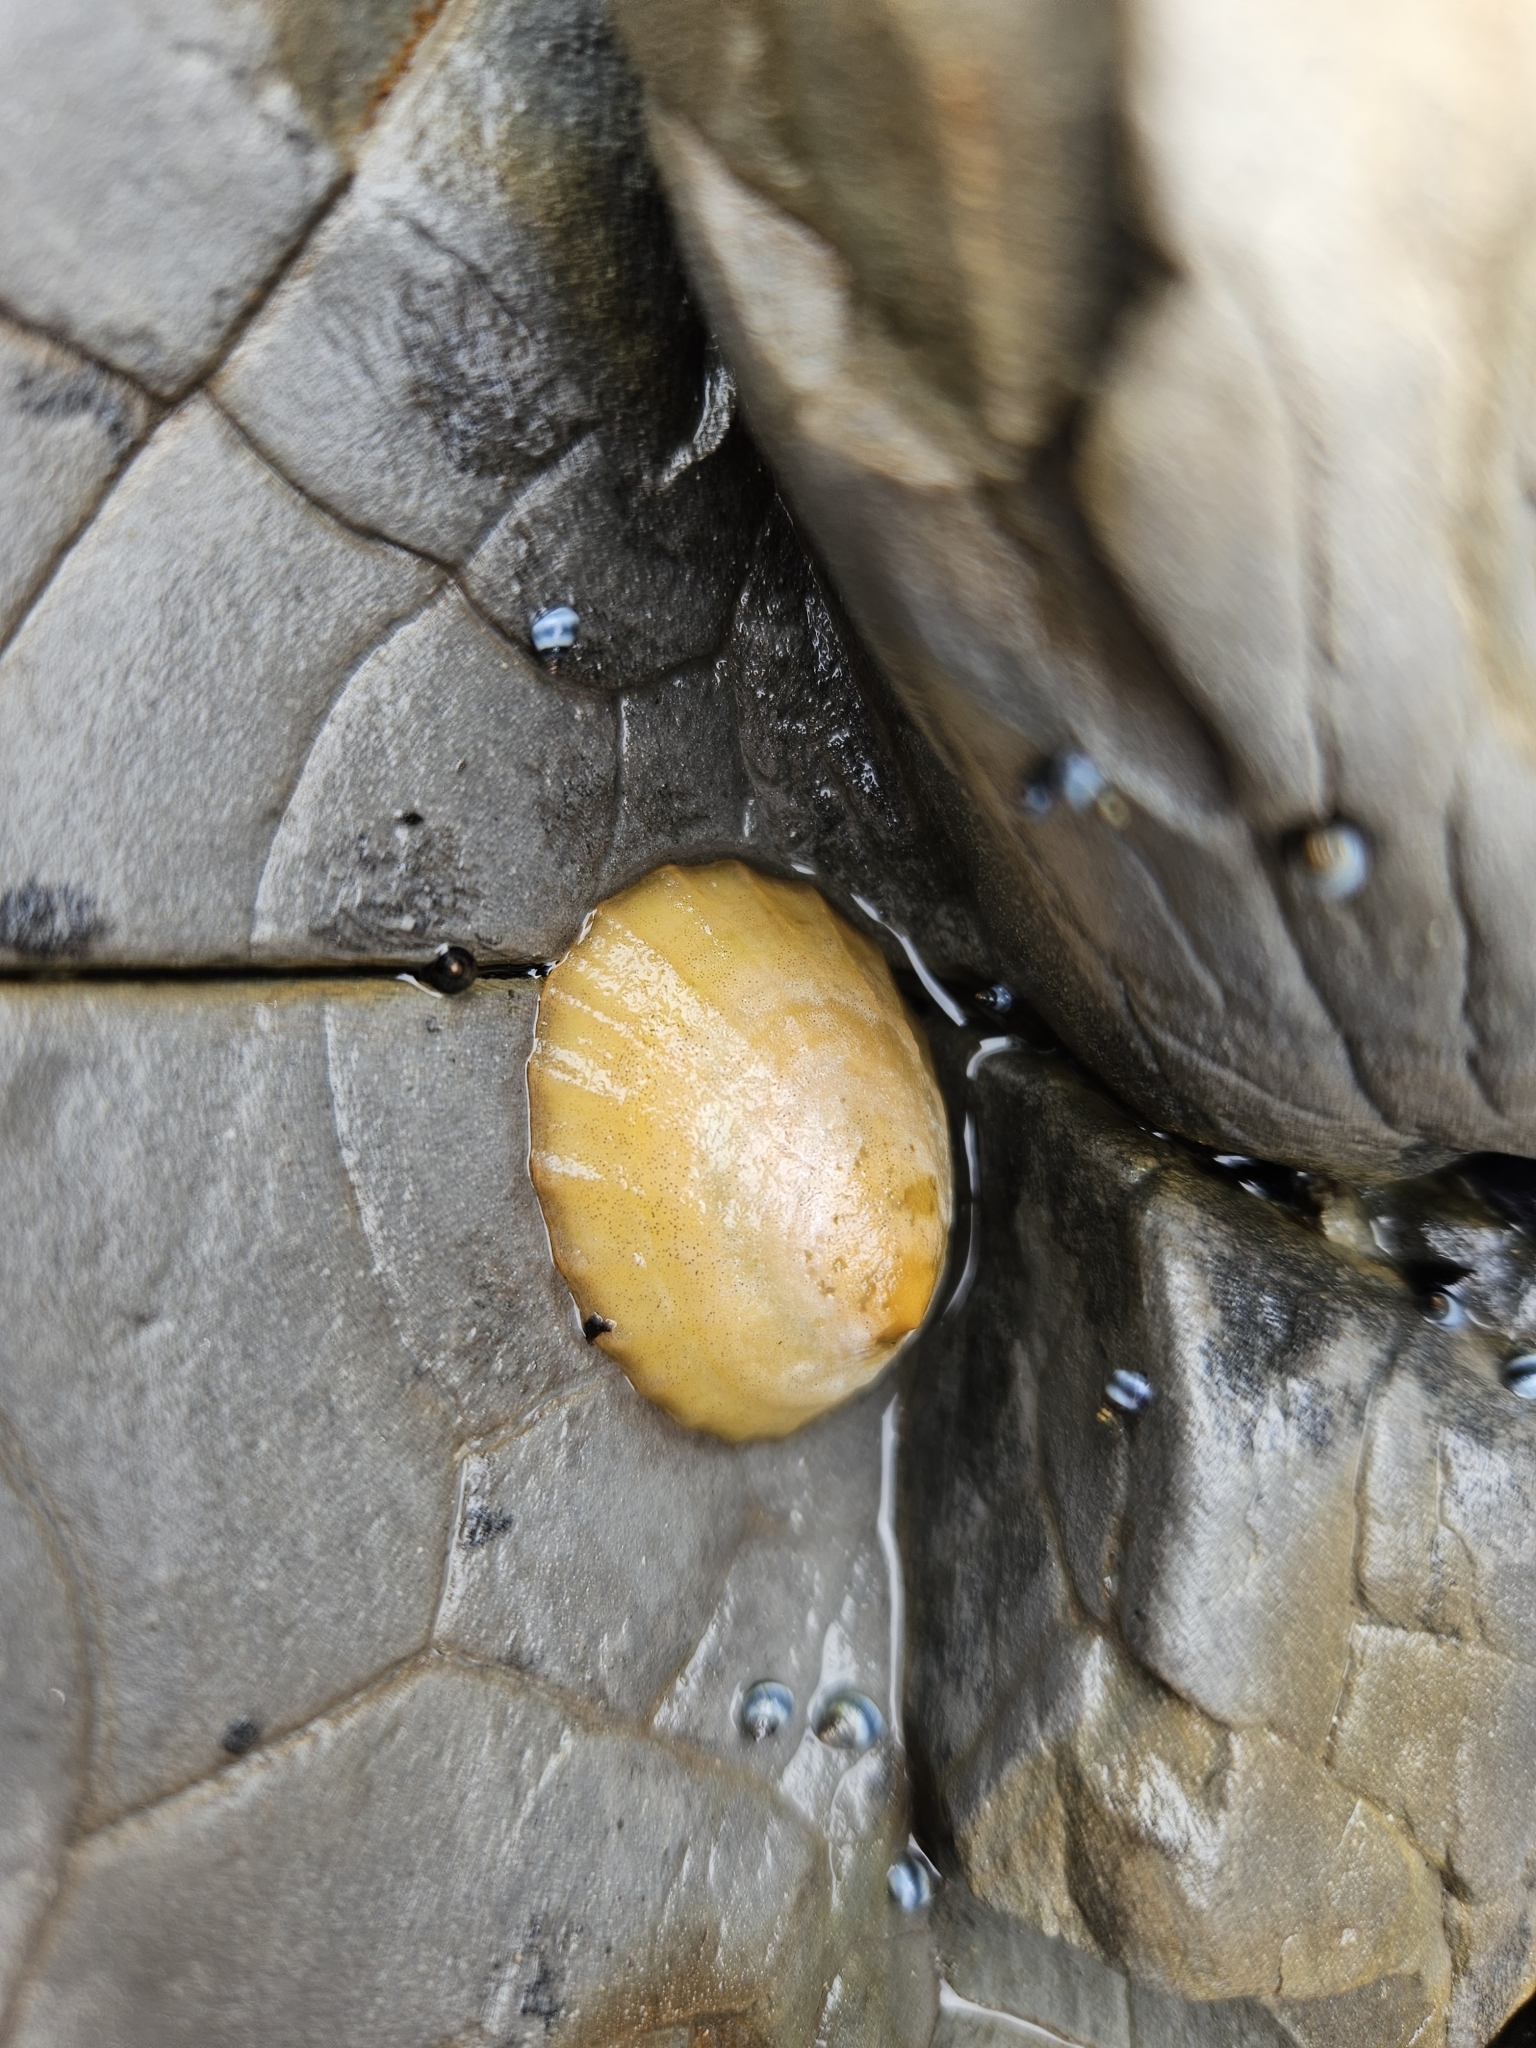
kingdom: Animalia
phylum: Mollusca
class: Gastropoda
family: Nacellidae
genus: Cellana
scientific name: Cellana flava
